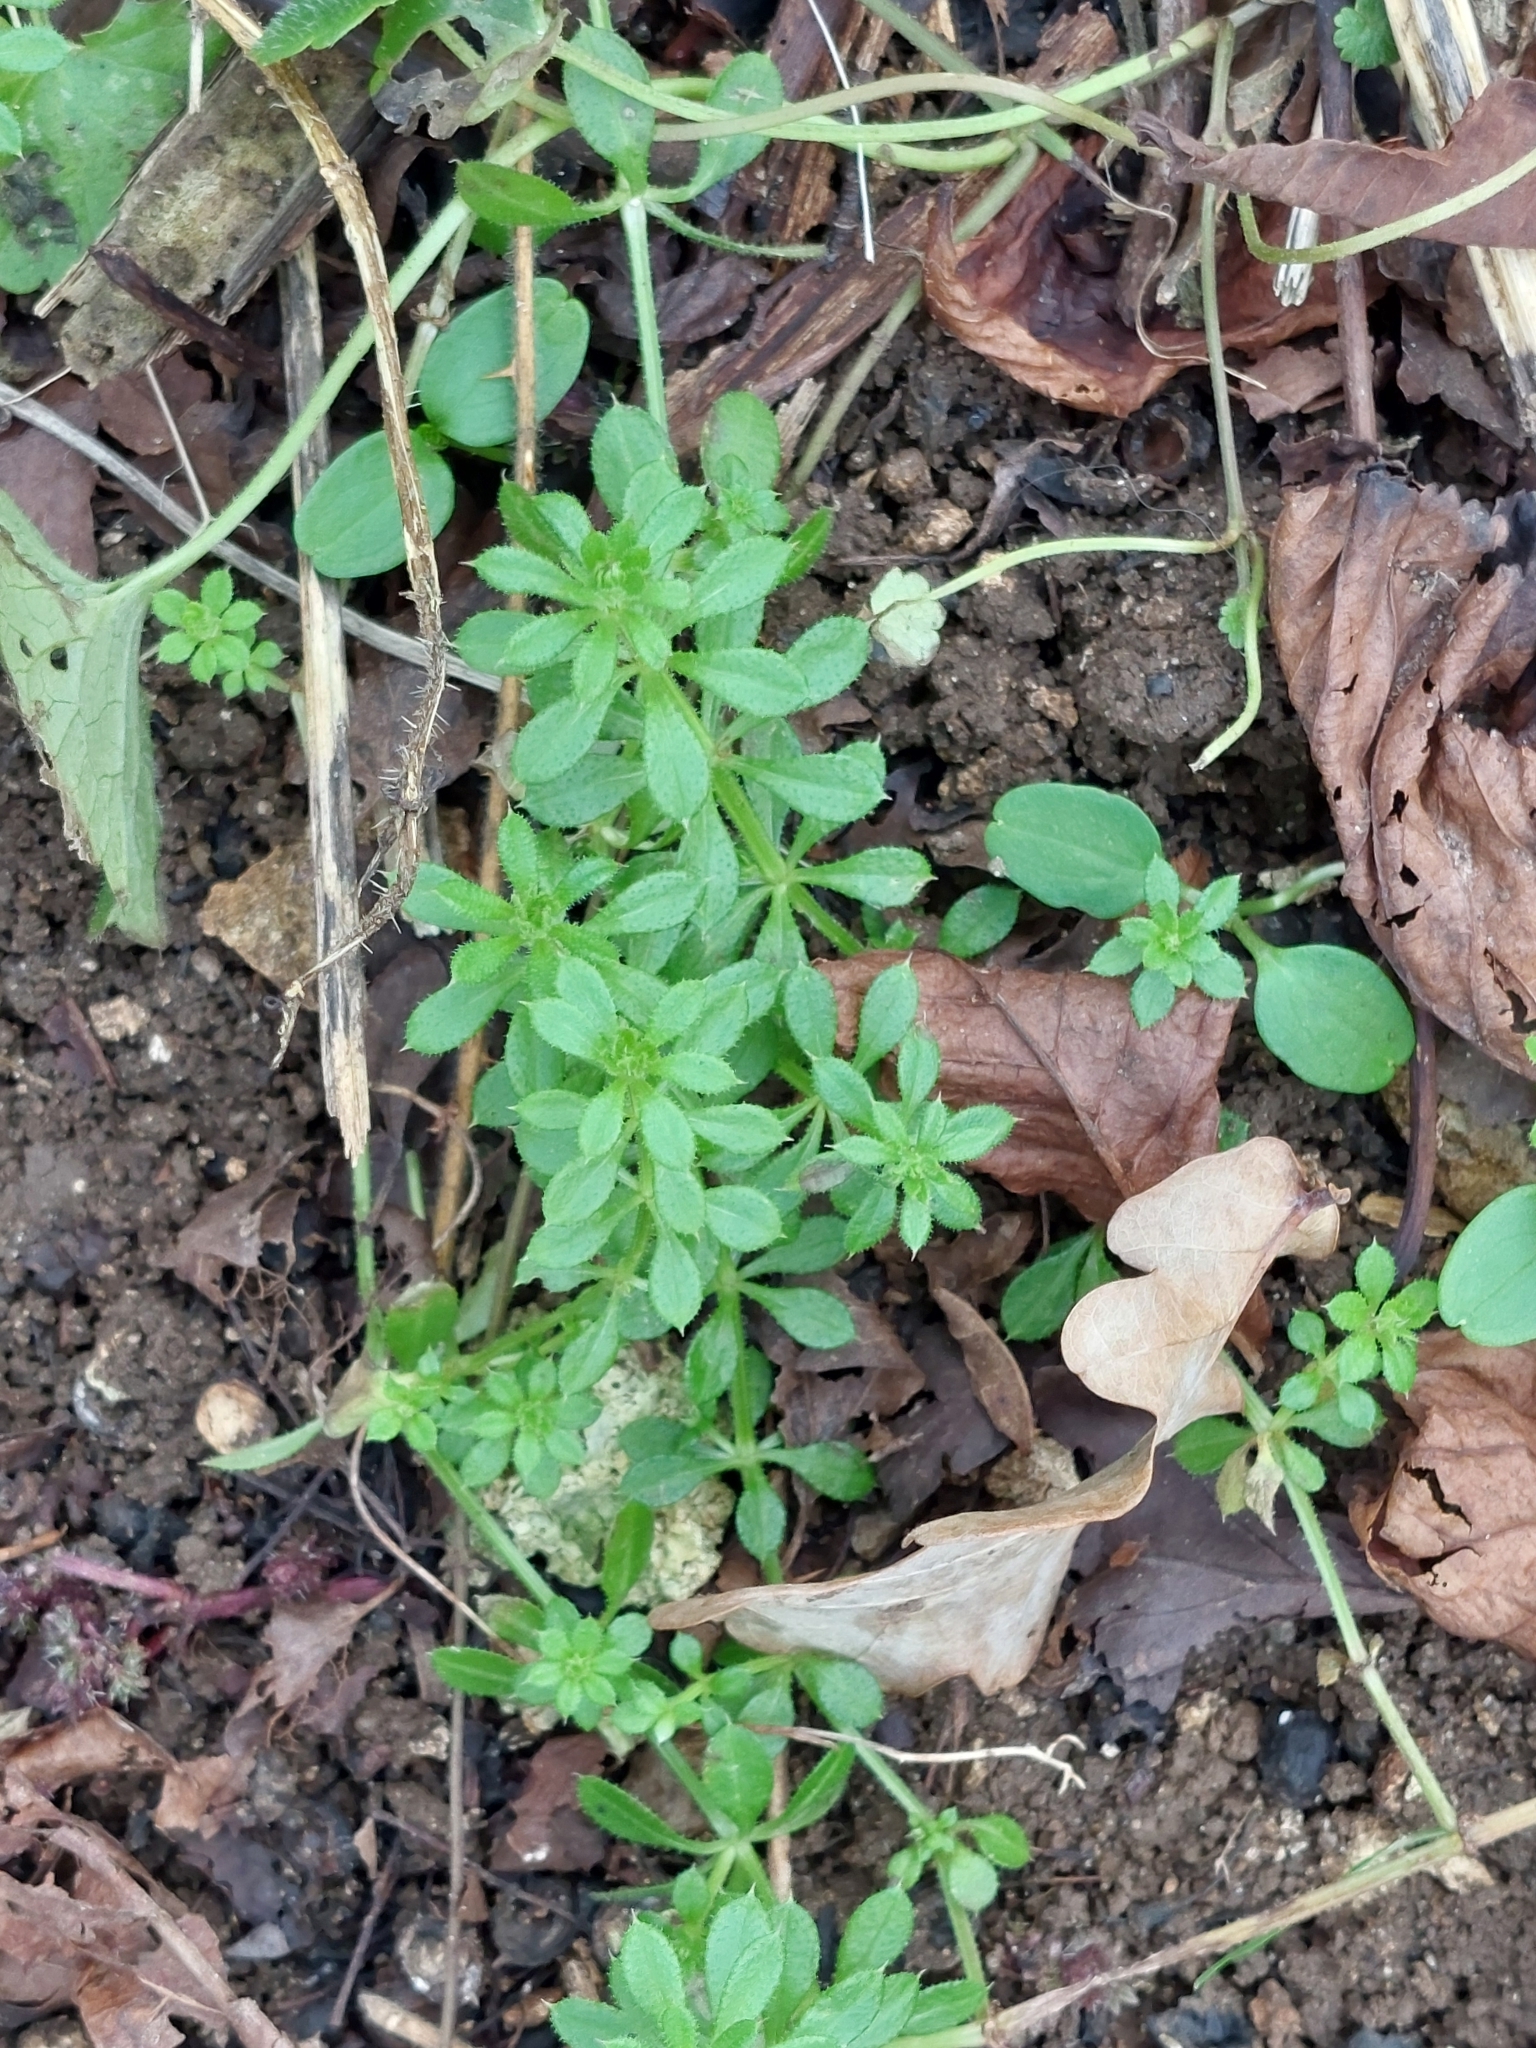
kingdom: Plantae
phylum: Tracheophyta
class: Magnoliopsida
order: Gentianales
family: Rubiaceae
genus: Galium
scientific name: Galium aparine
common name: Cleavers
